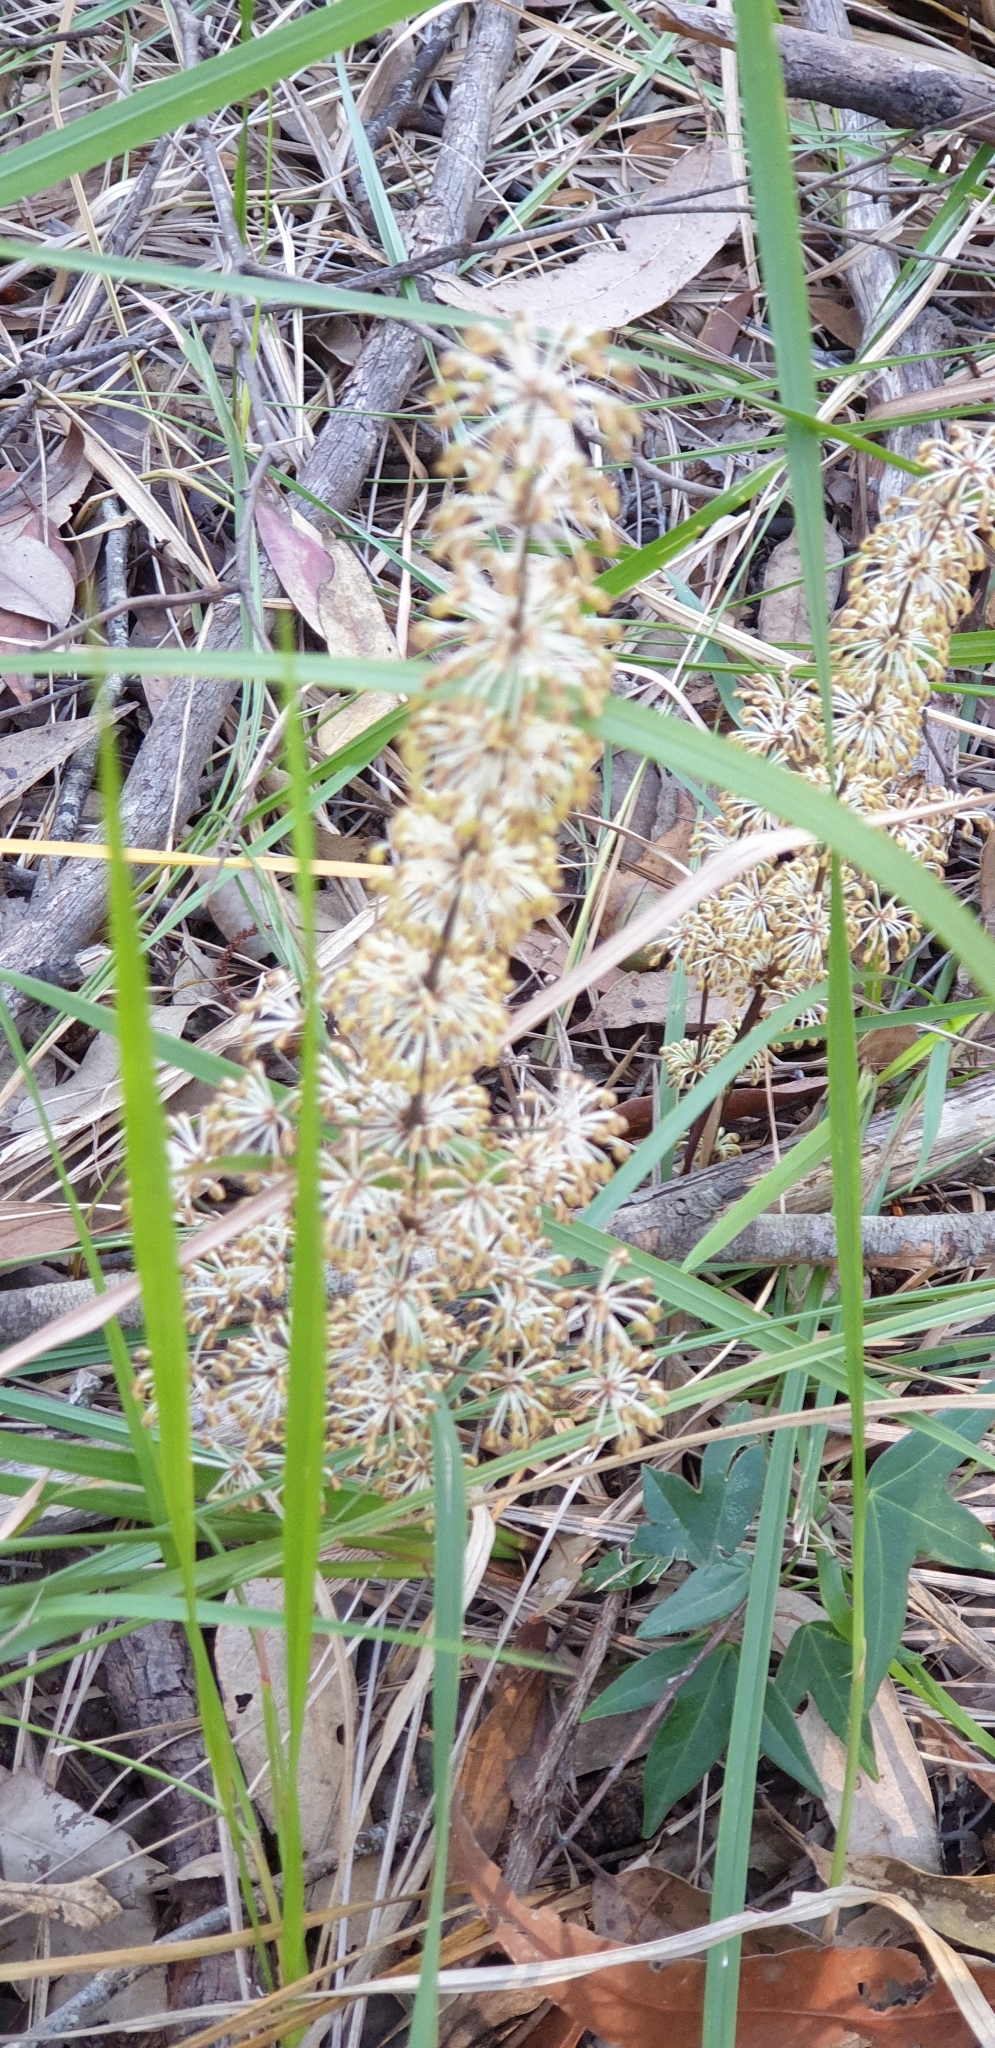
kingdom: Plantae
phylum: Tracheophyta
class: Liliopsida
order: Asparagales
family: Asparagaceae
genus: Lomandra
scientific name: Lomandra multiflora
